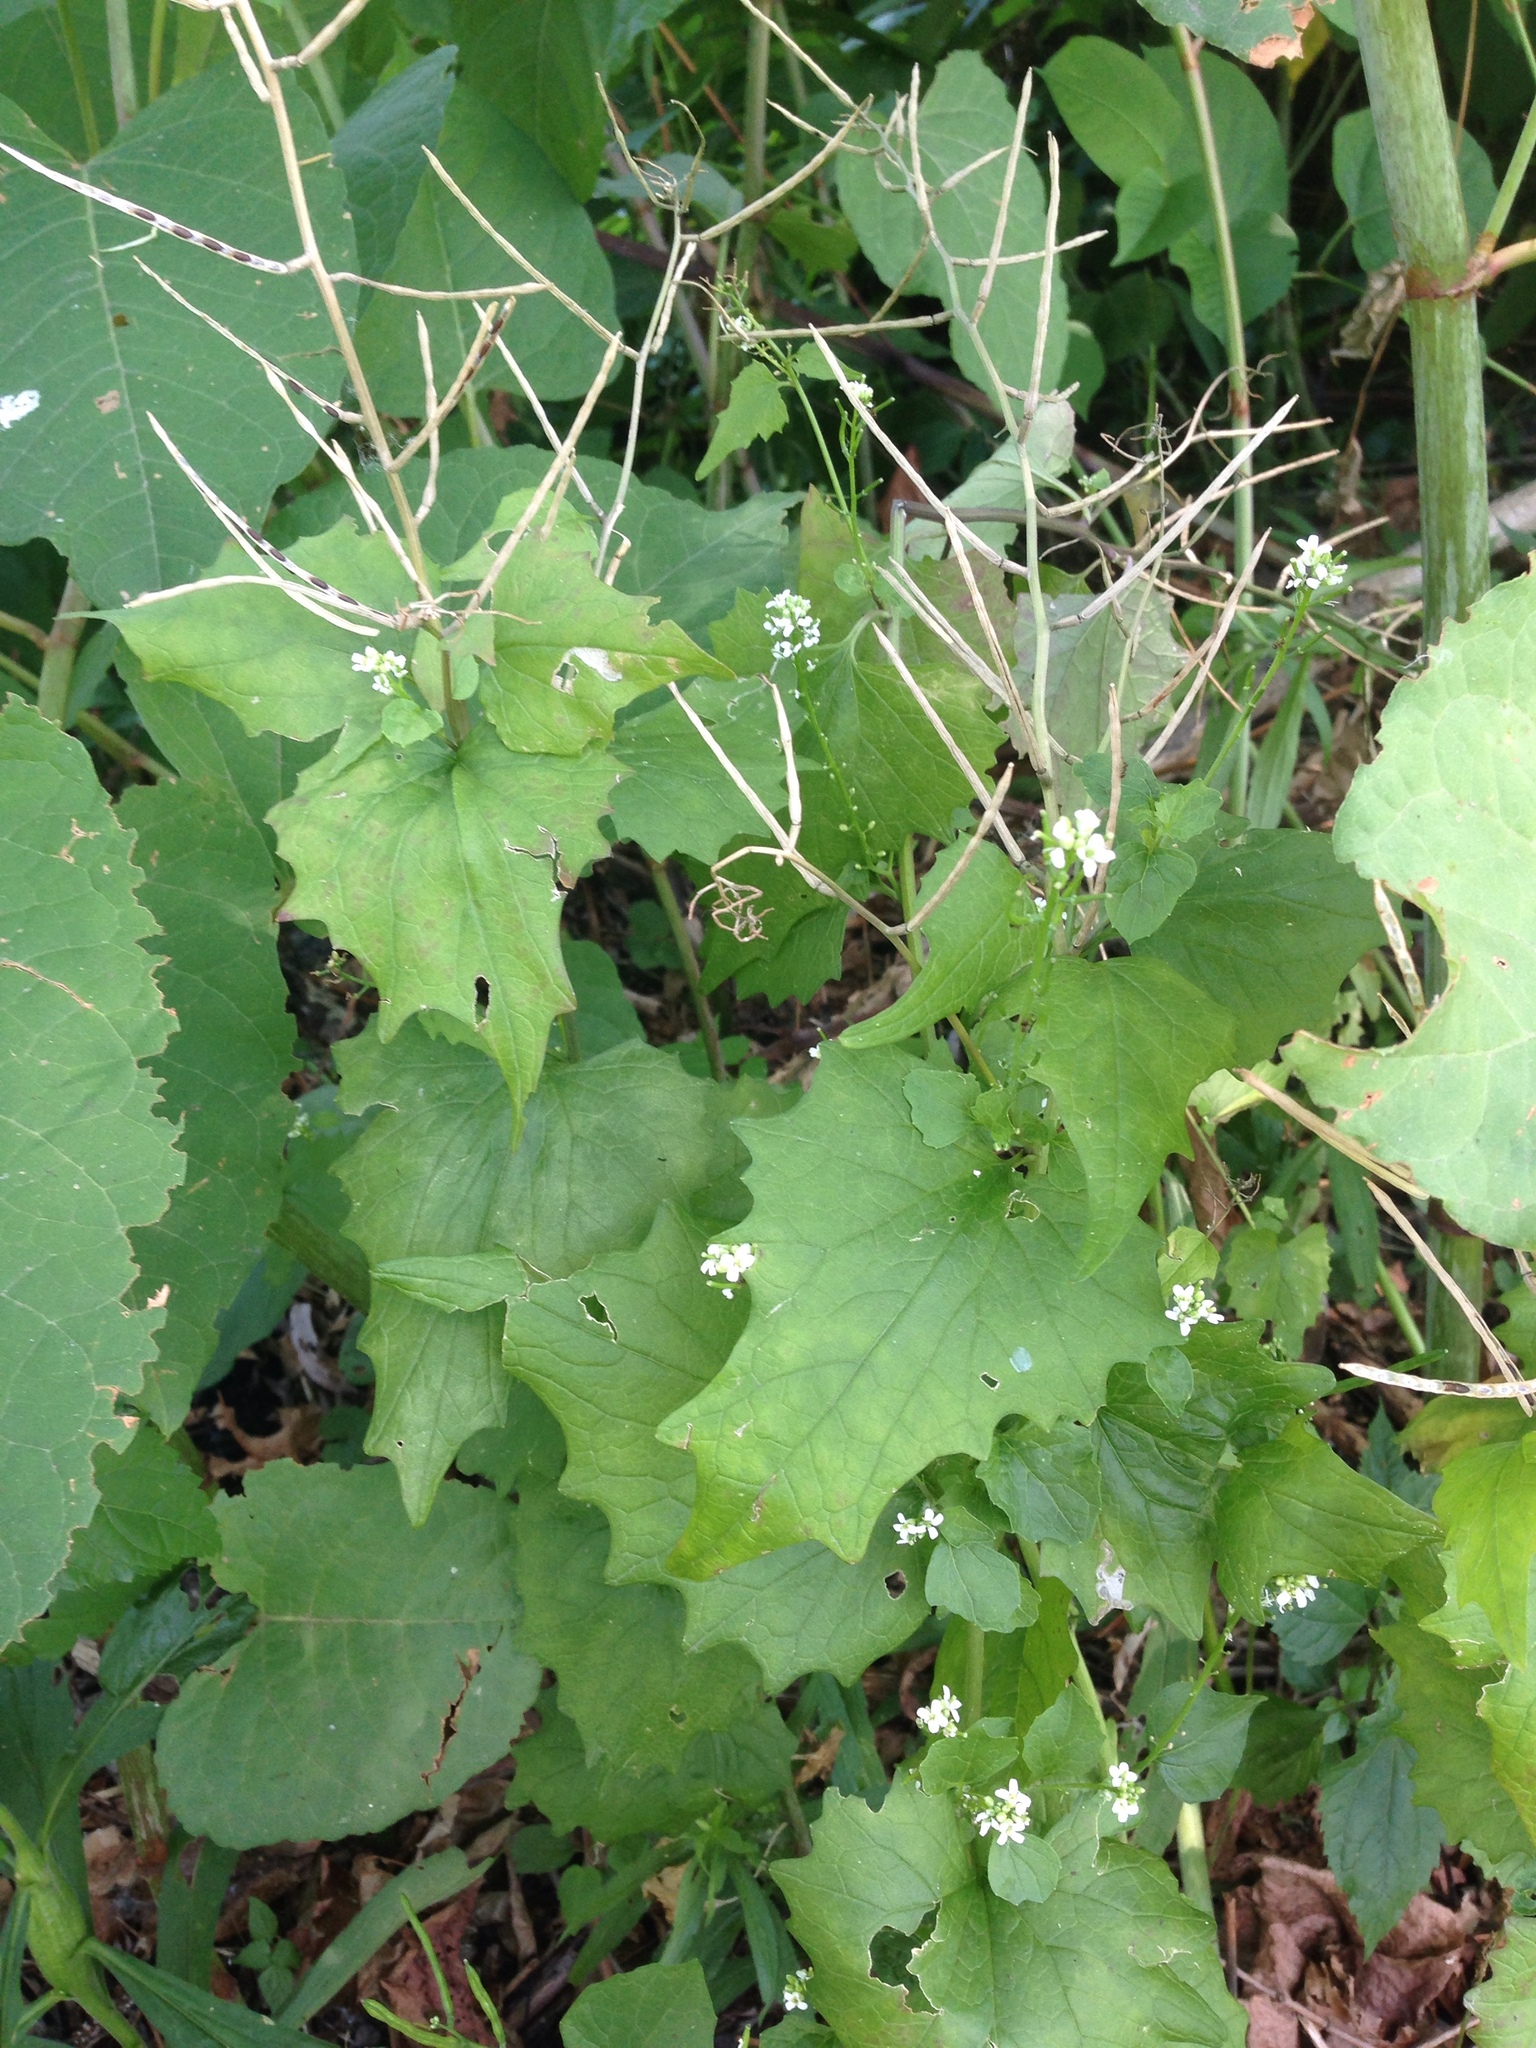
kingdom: Plantae
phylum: Tracheophyta
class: Magnoliopsida
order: Brassicales
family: Brassicaceae
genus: Alliaria
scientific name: Alliaria petiolata
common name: Garlic mustard
